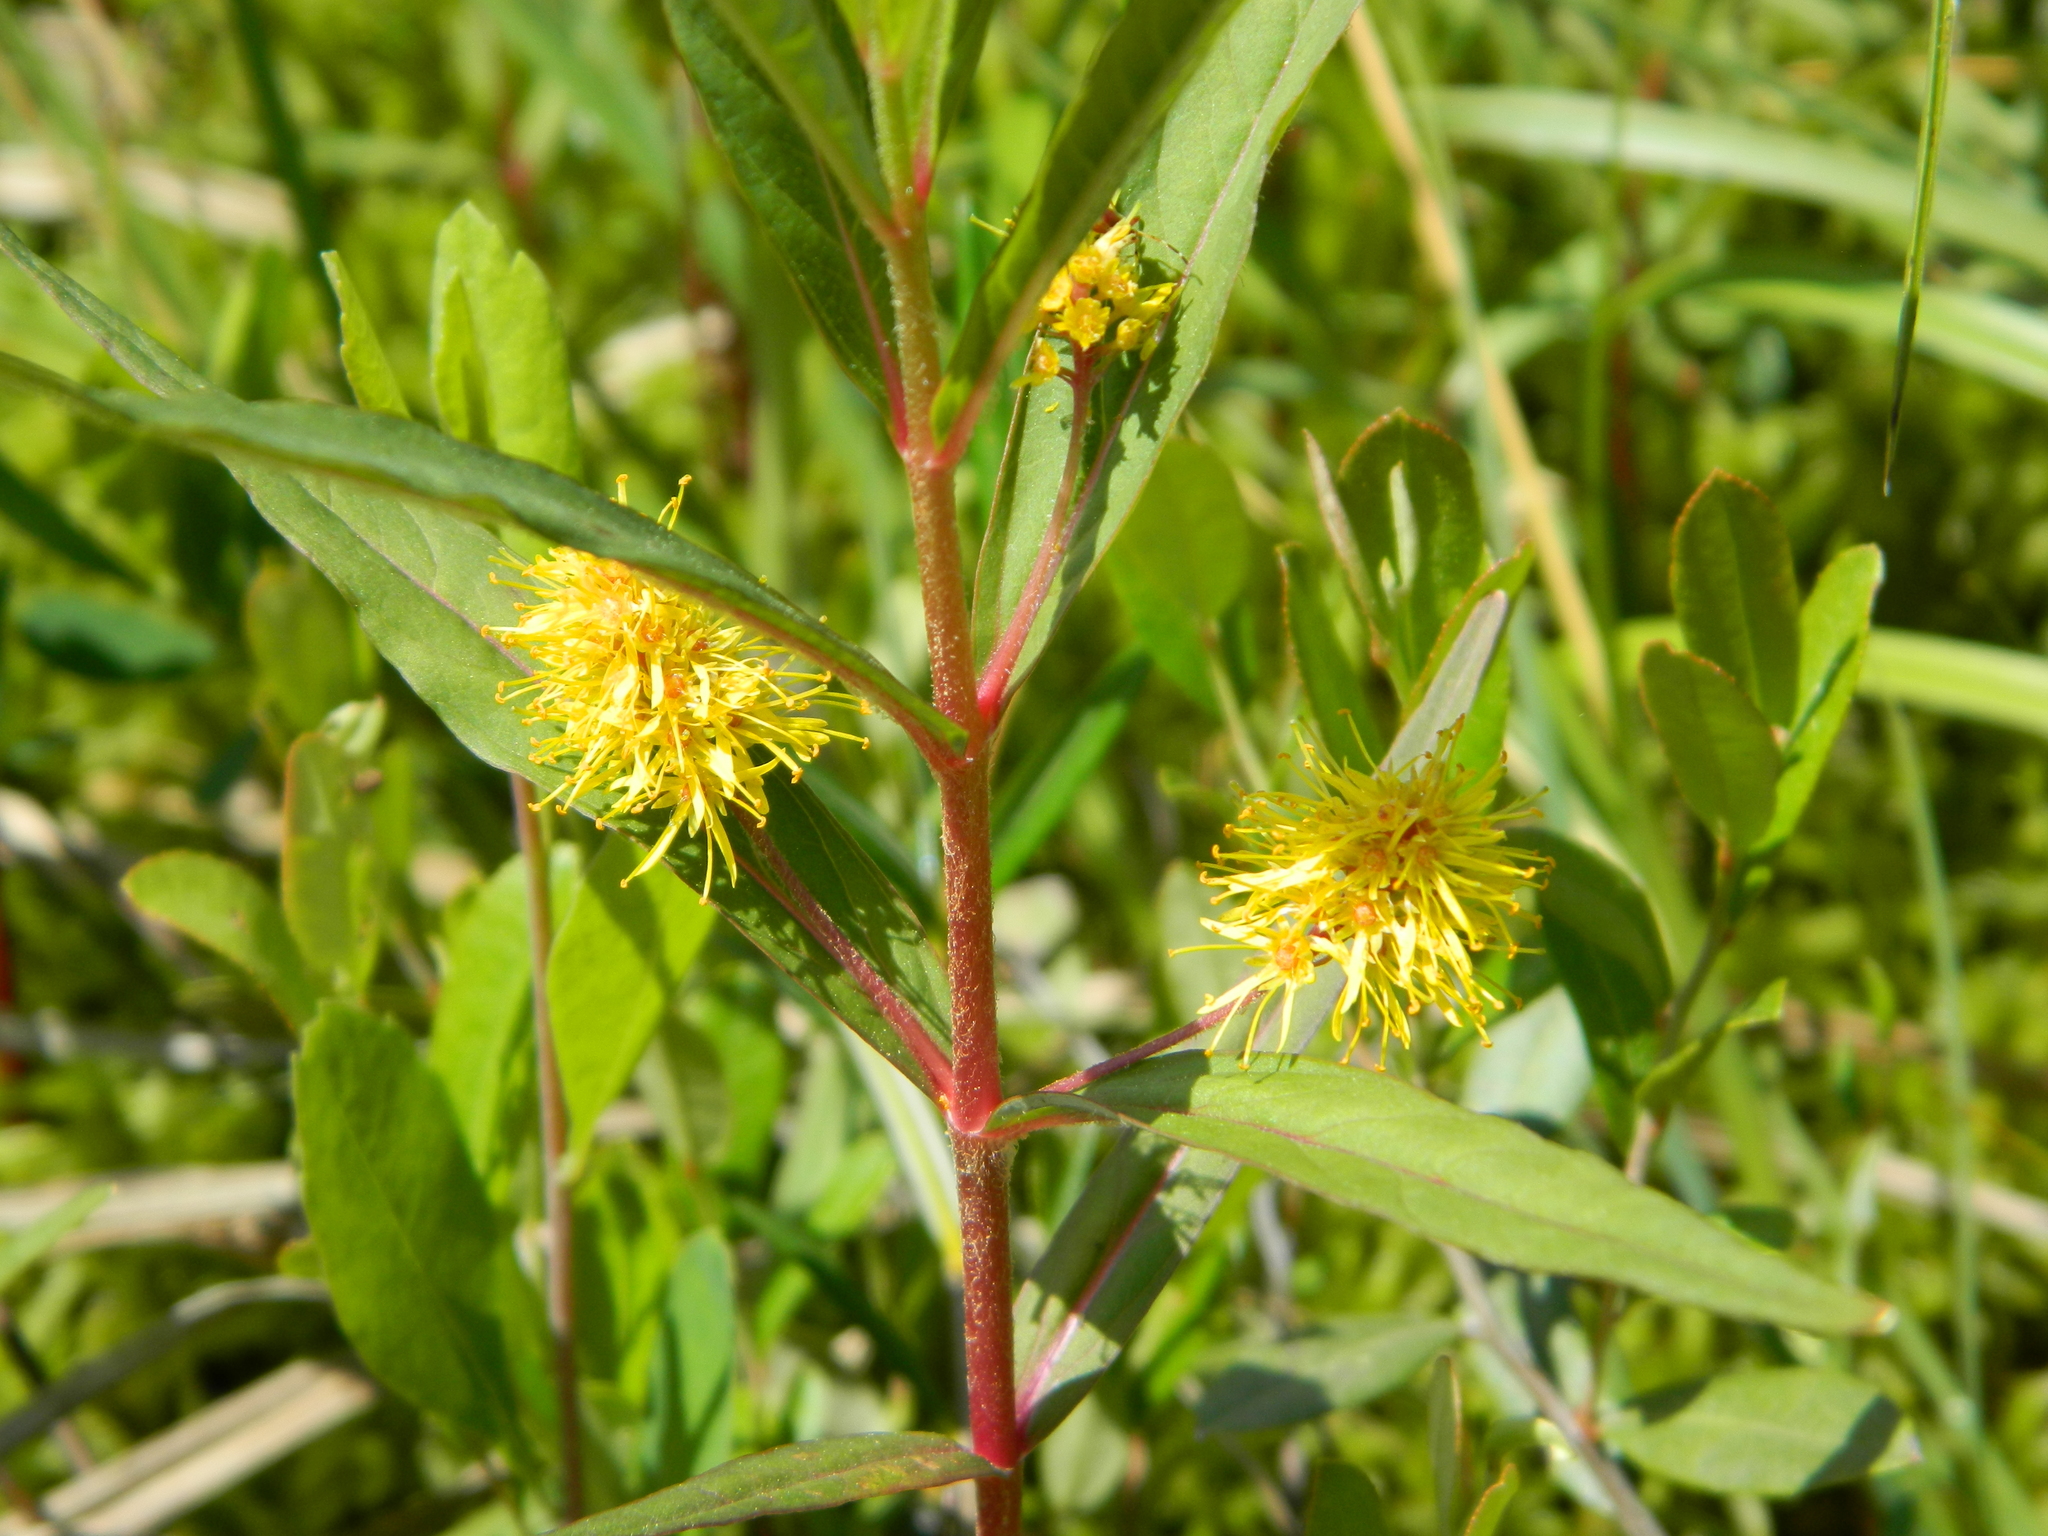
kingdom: Plantae
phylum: Tracheophyta
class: Magnoliopsida
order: Ericales
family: Primulaceae
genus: Lysimachia
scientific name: Lysimachia thyrsiflora
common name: Tufted loosestrife
